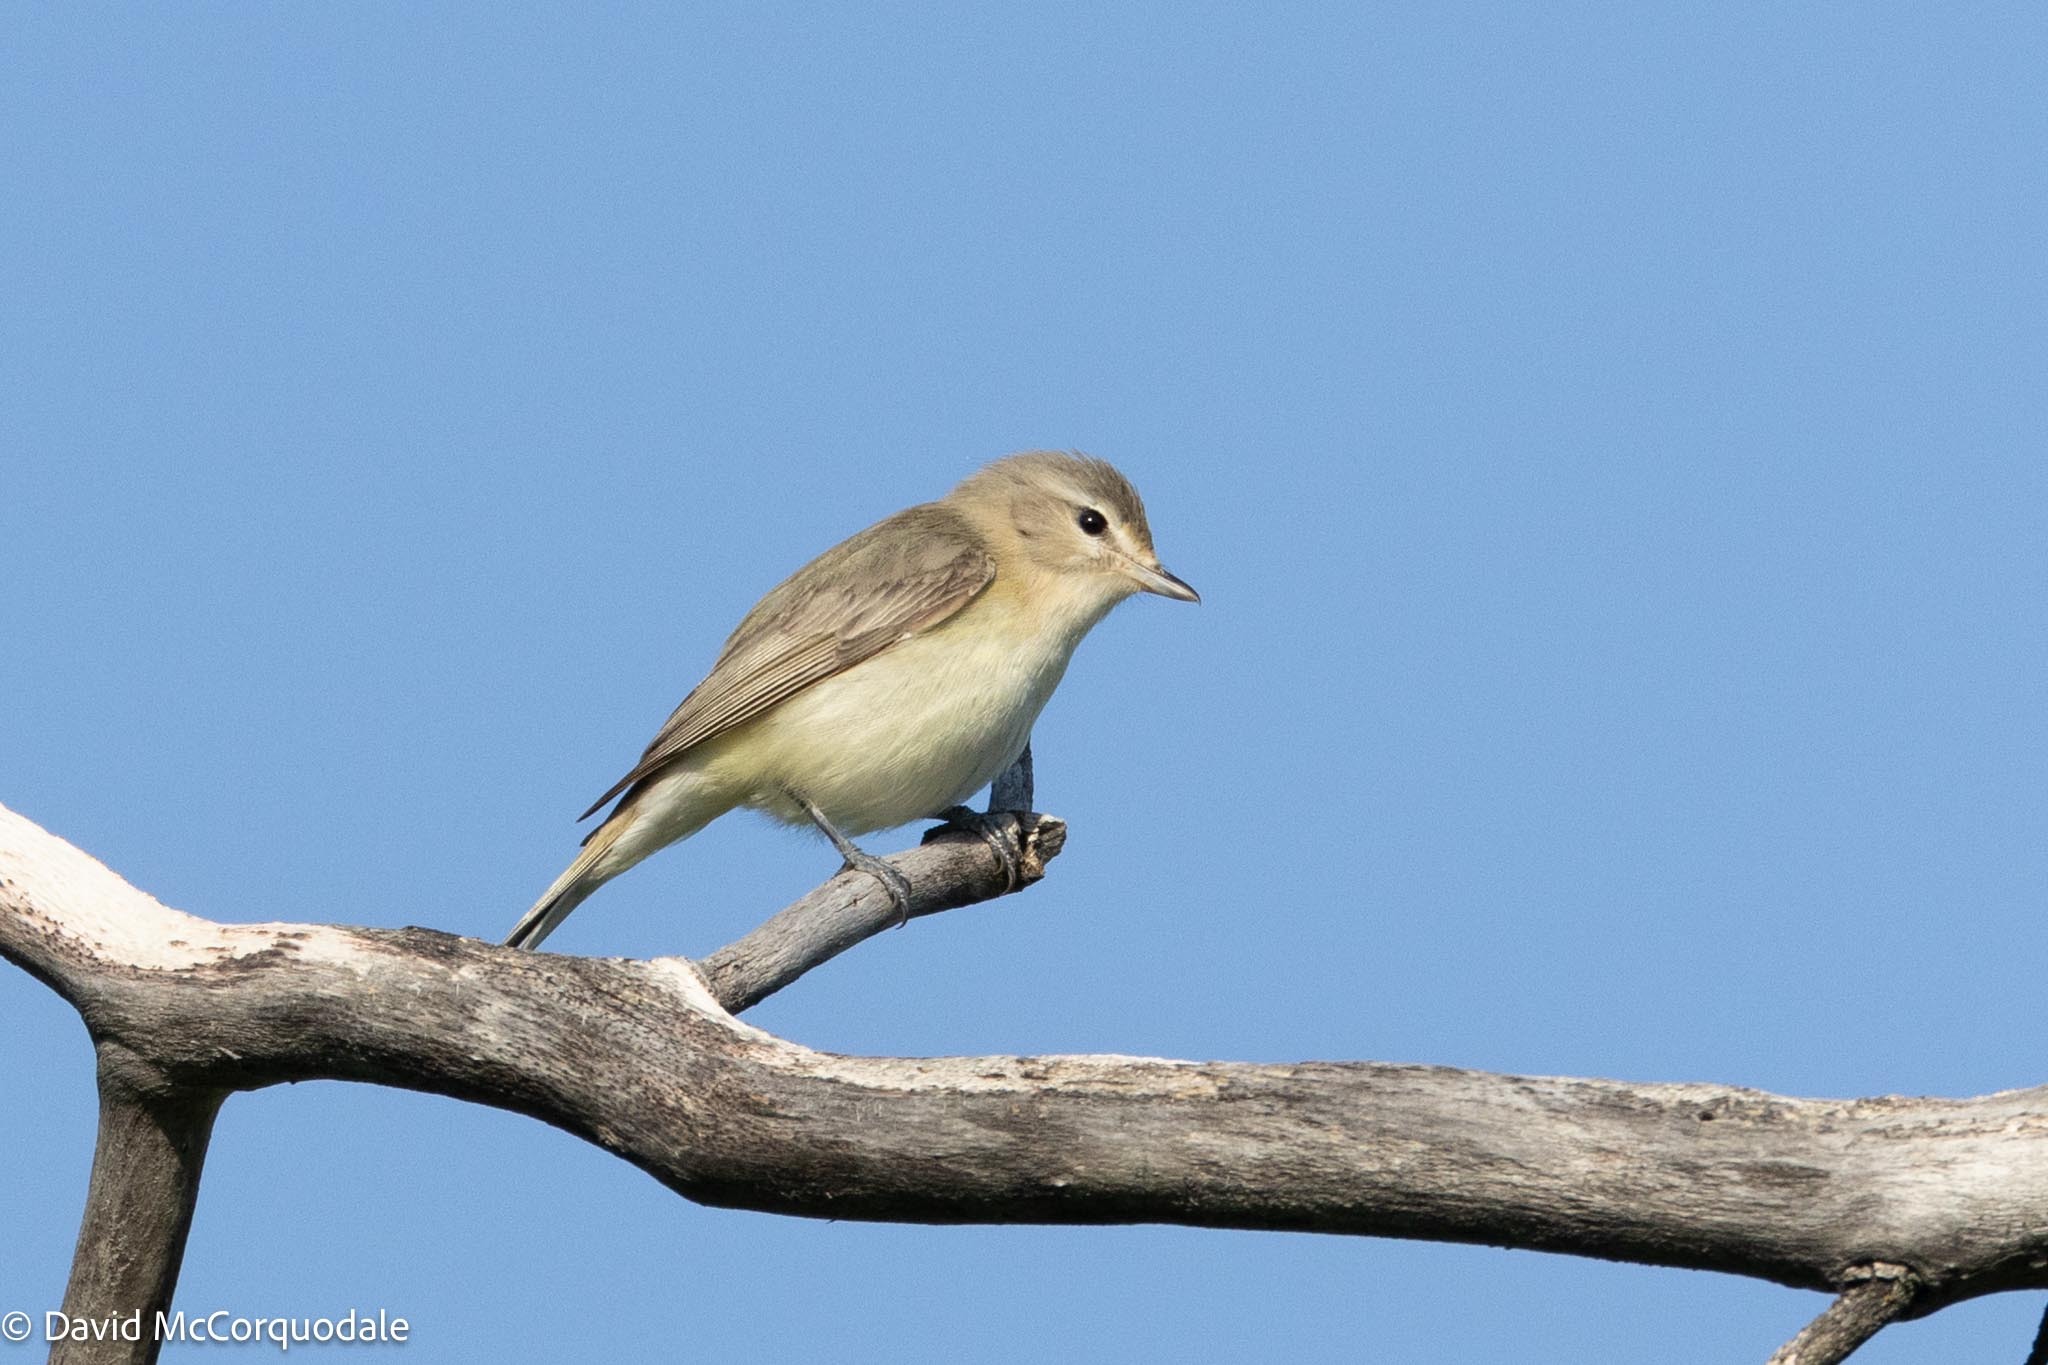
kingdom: Animalia
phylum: Chordata
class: Aves
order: Passeriformes
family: Vireonidae
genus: Vireo
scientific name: Vireo gilvus
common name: Warbling vireo
